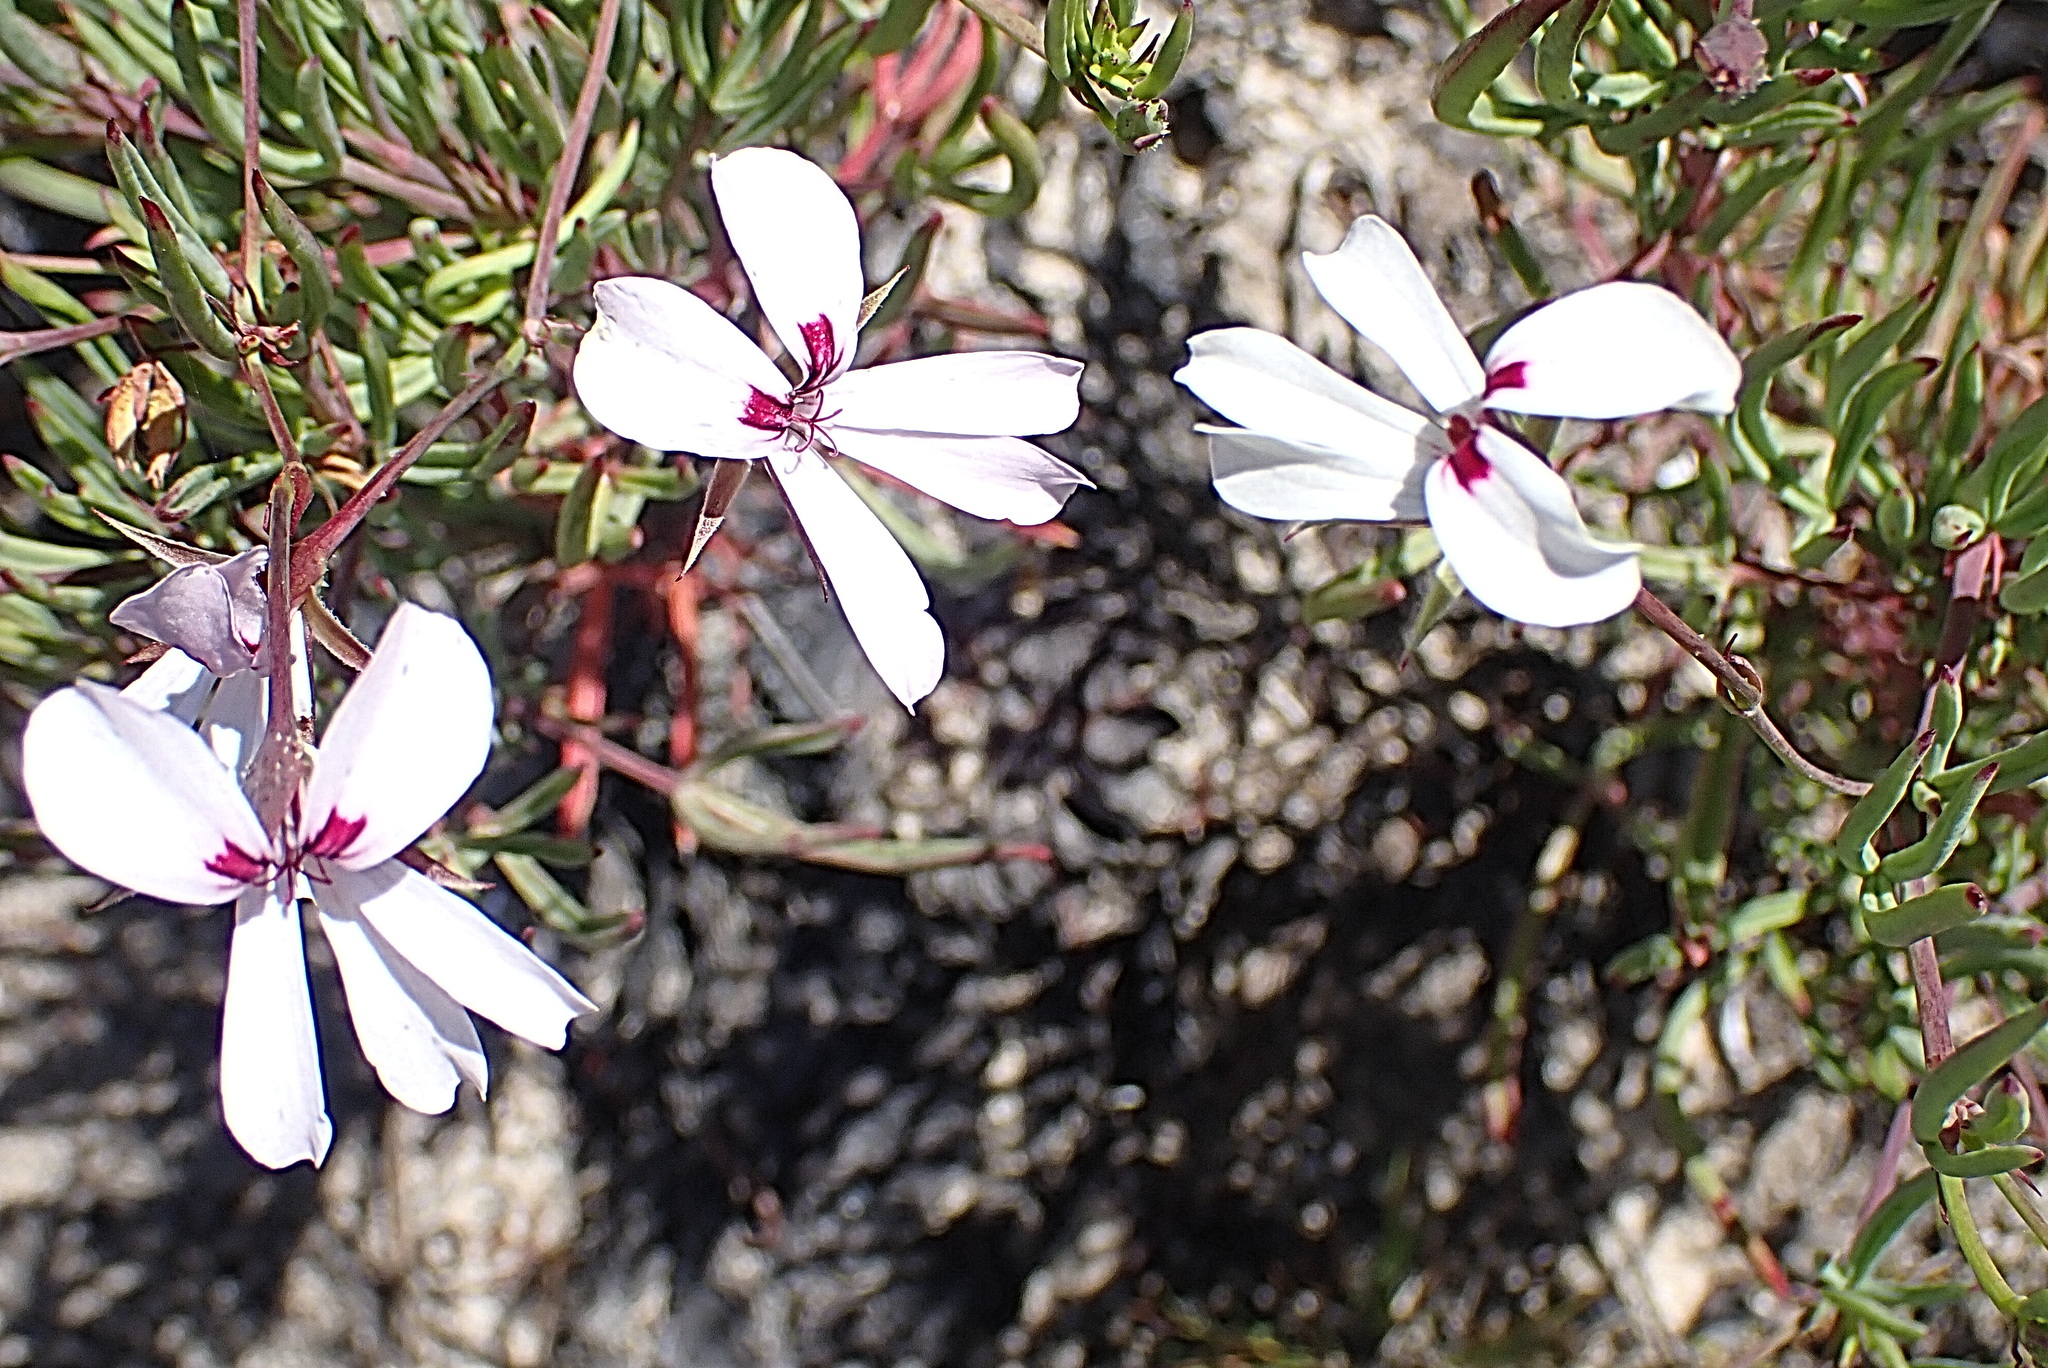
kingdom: Plantae
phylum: Tracheophyta
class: Magnoliopsida
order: Geraniales
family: Geraniaceae
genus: Pelargonium
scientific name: Pelargonium laevigatum
